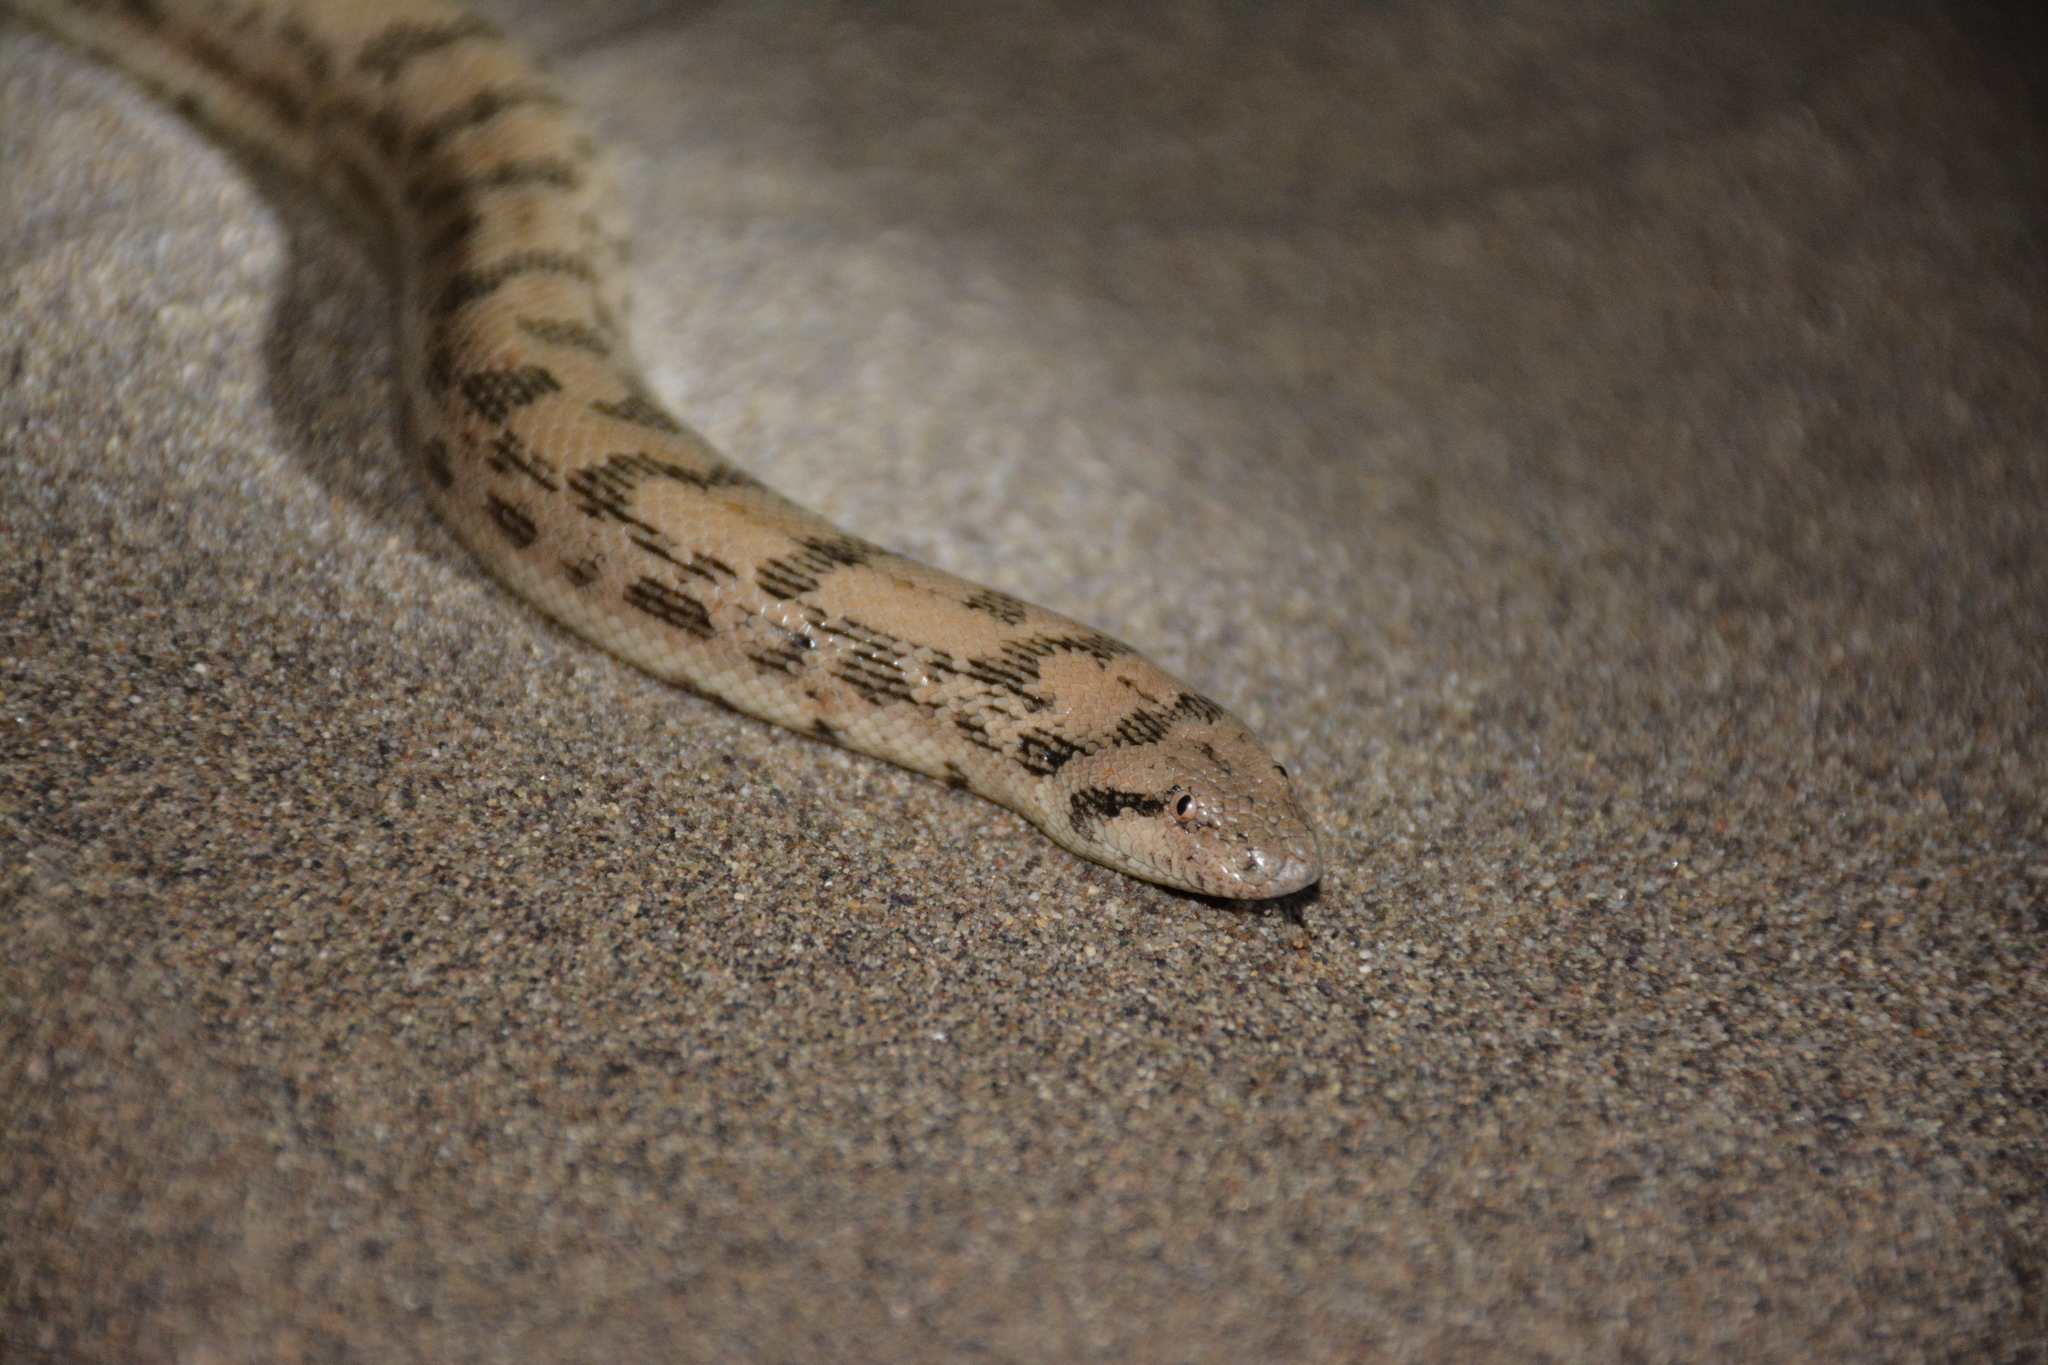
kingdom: Animalia
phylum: Chordata
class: Squamata
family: Boidae
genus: Eryx
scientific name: Eryx miliaris
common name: Desert sand boa
